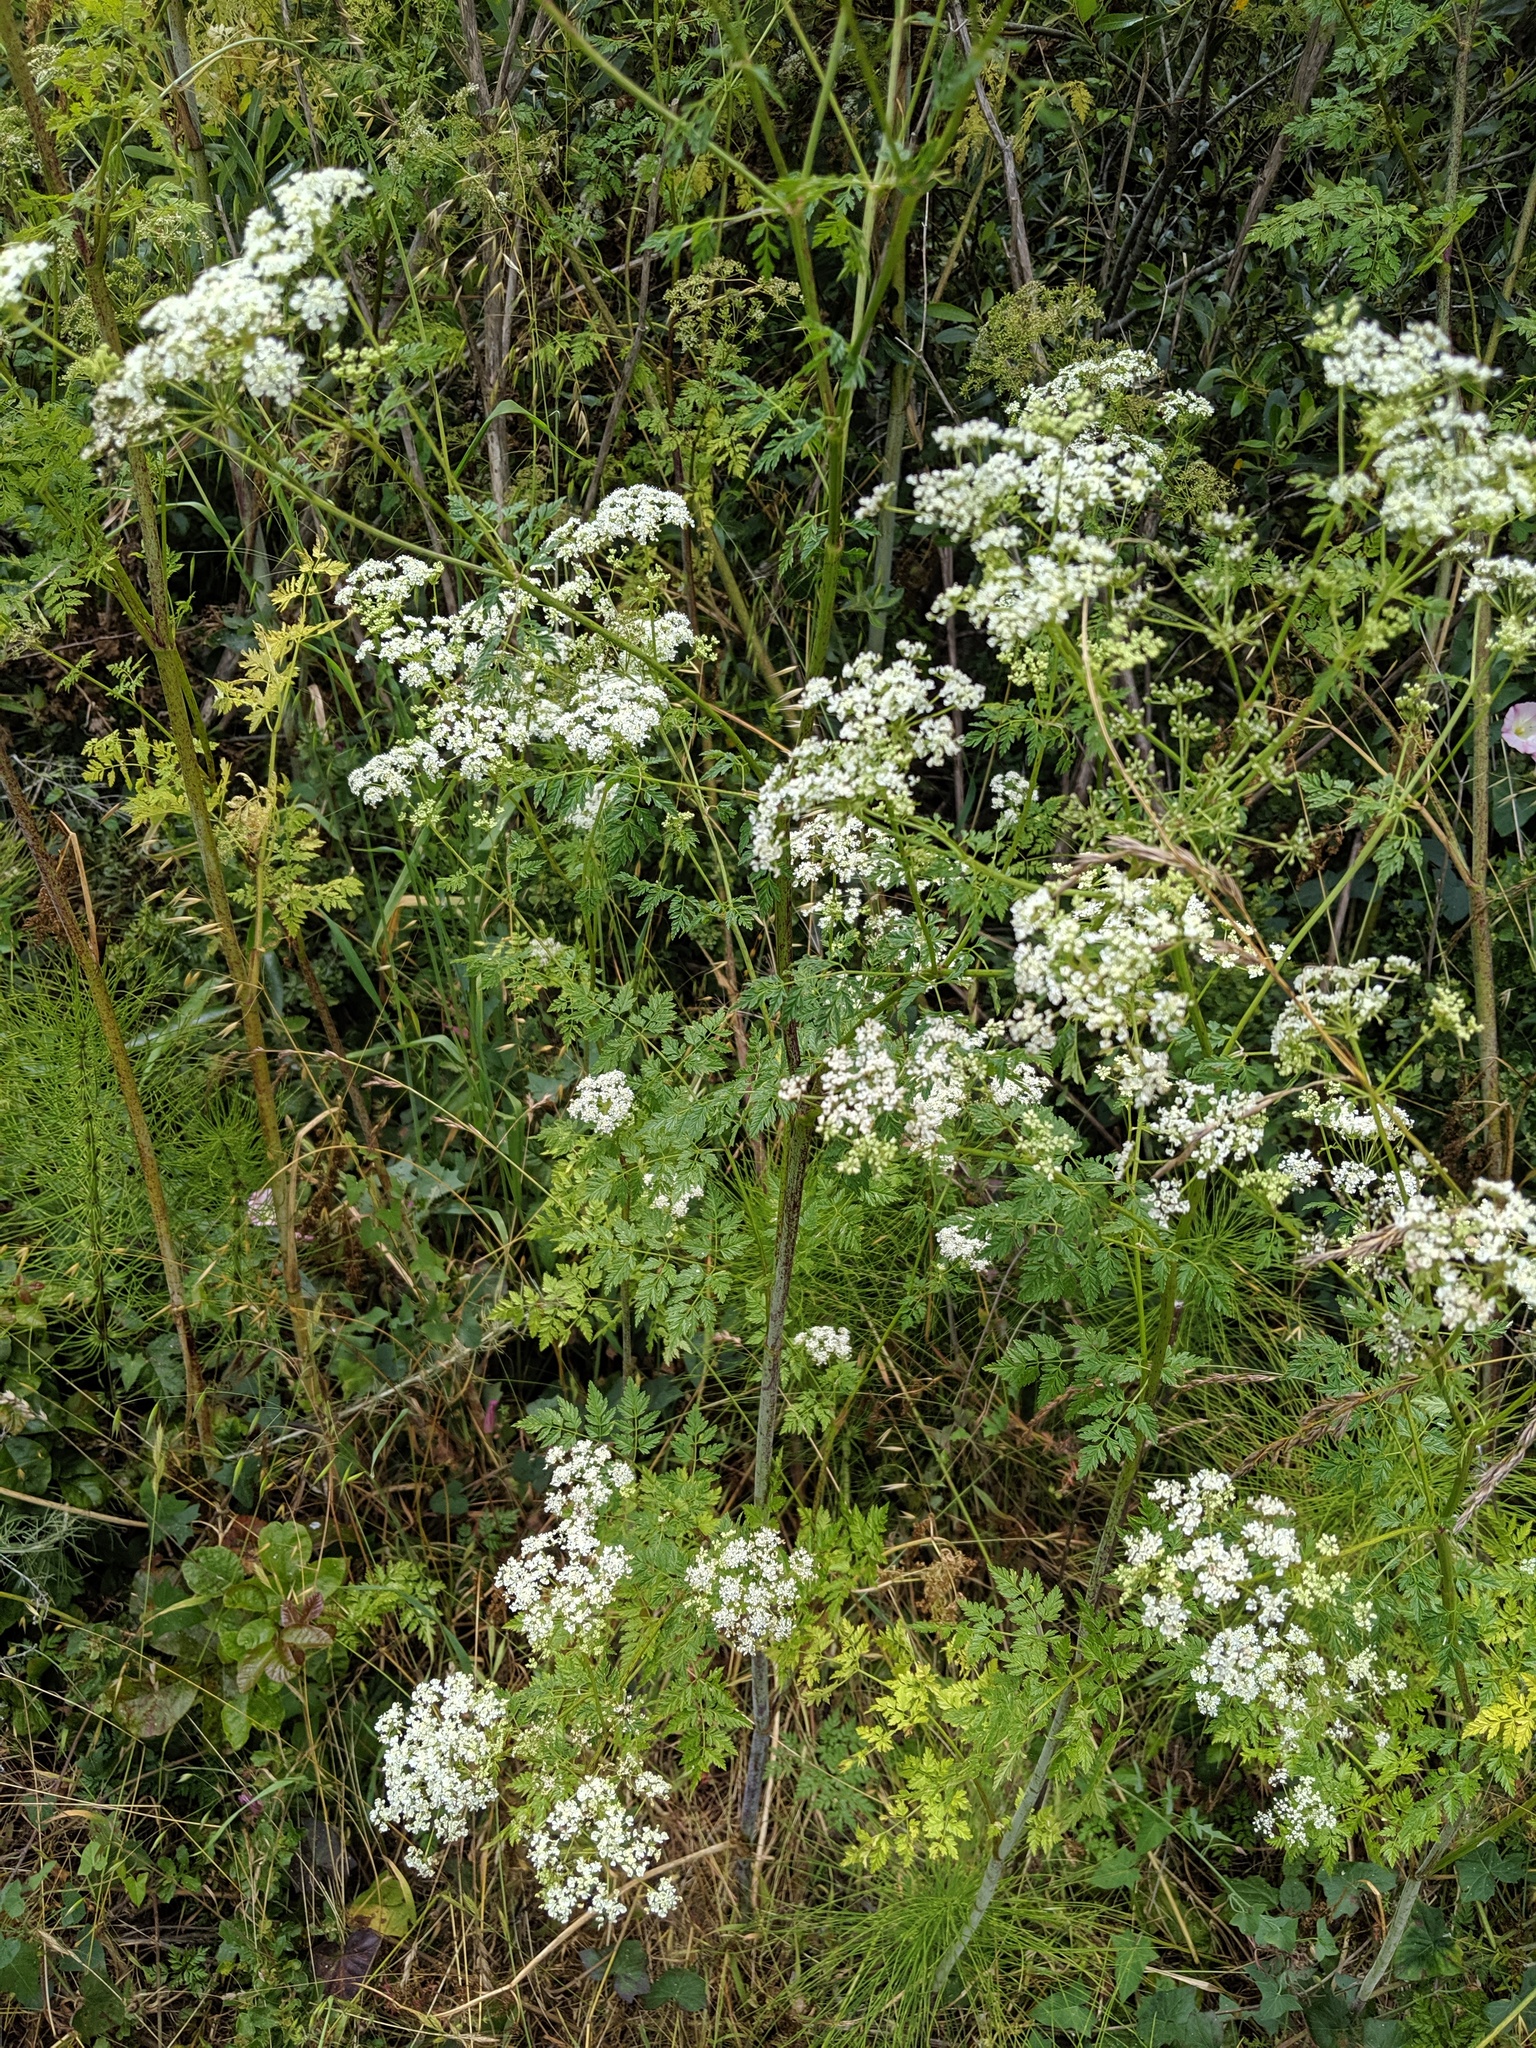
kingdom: Plantae
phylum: Tracheophyta
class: Magnoliopsida
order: Apiales
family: Apiaceae
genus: Conium
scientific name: Conium maculatum
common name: Hemlock
